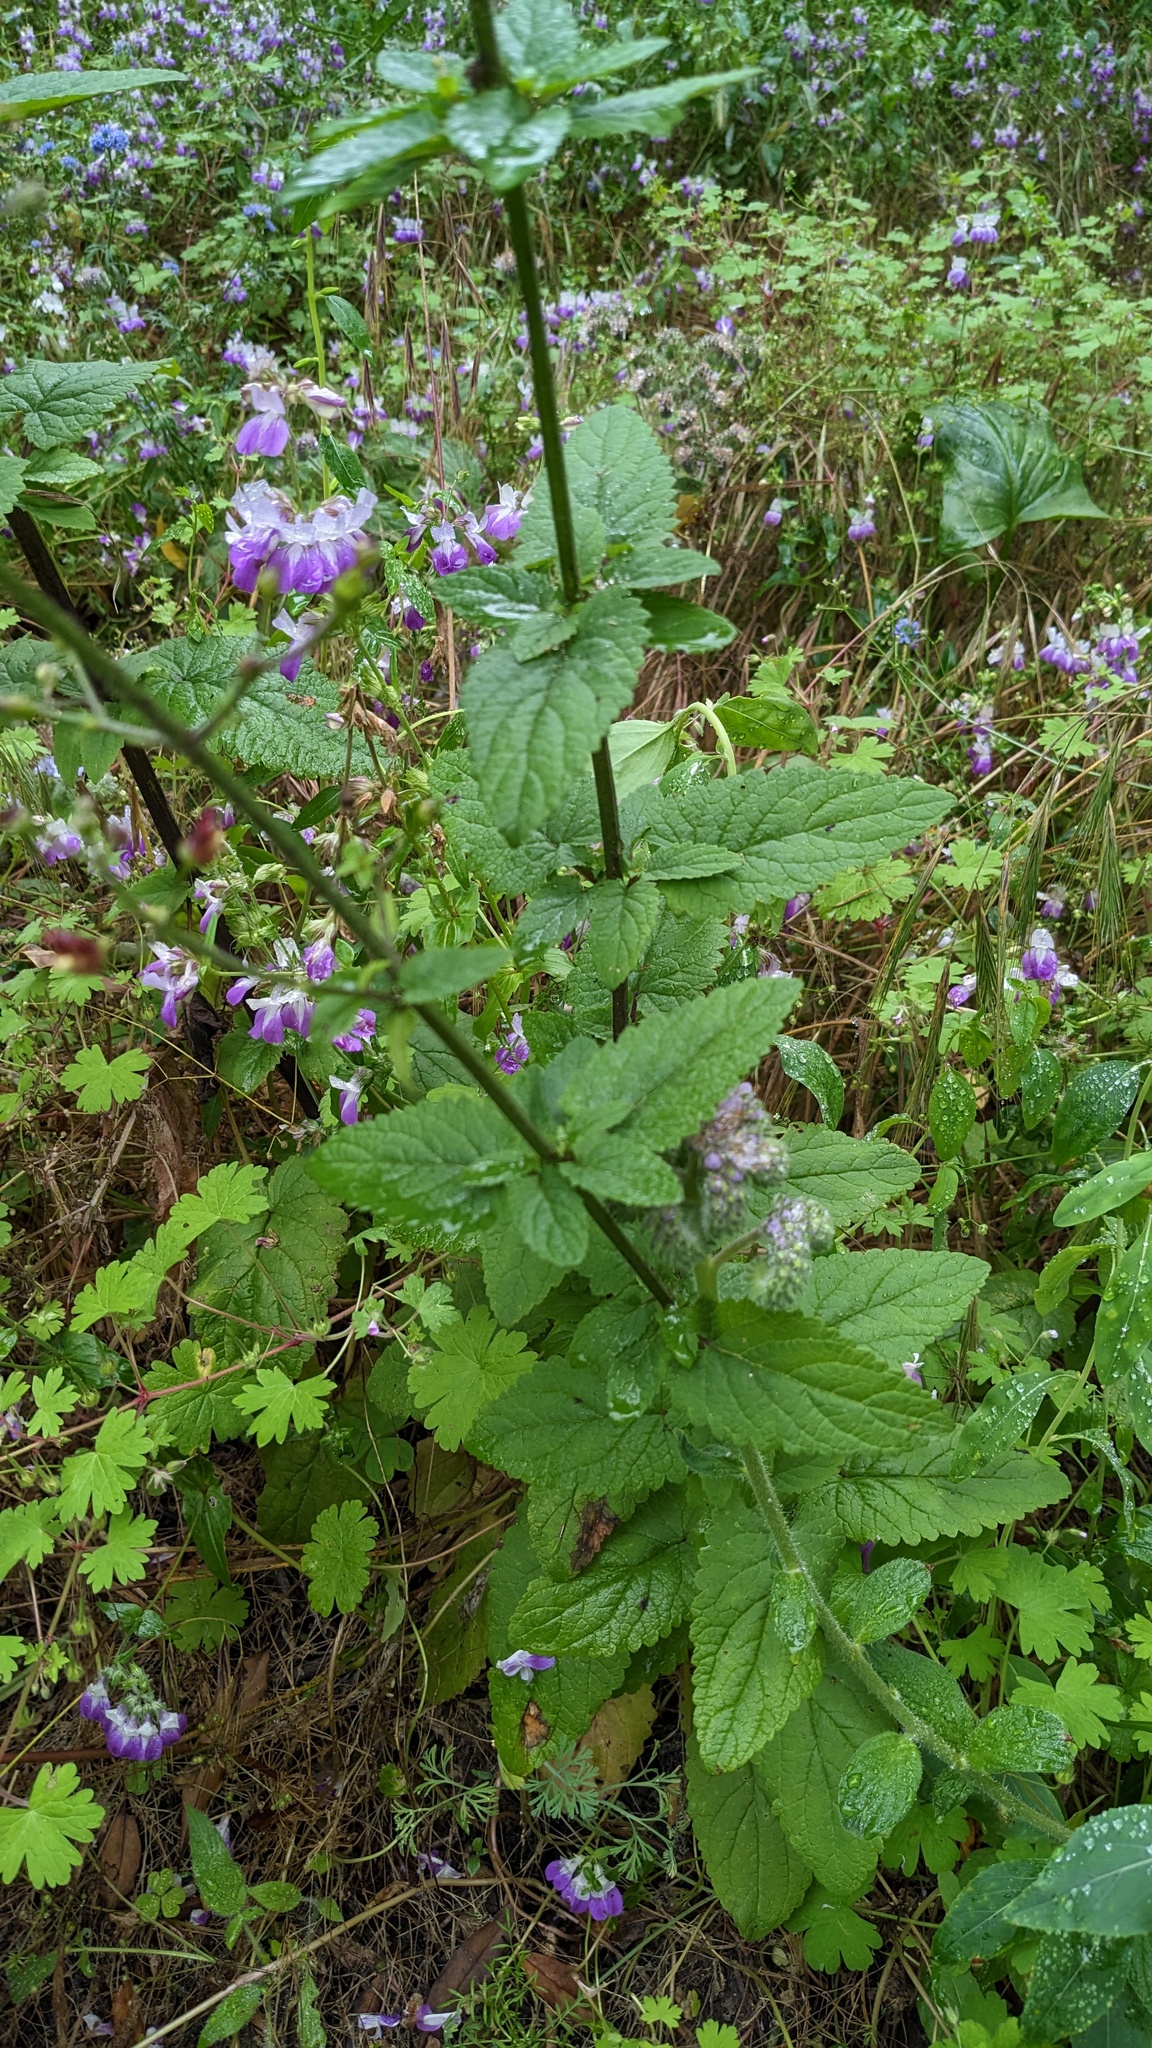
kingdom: Plantae
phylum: Tracheophyta
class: Magnoliopsida
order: Lamiales
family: Scrophulariaceae
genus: Scrophularia
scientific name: Scrophularia californica
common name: California figwort
